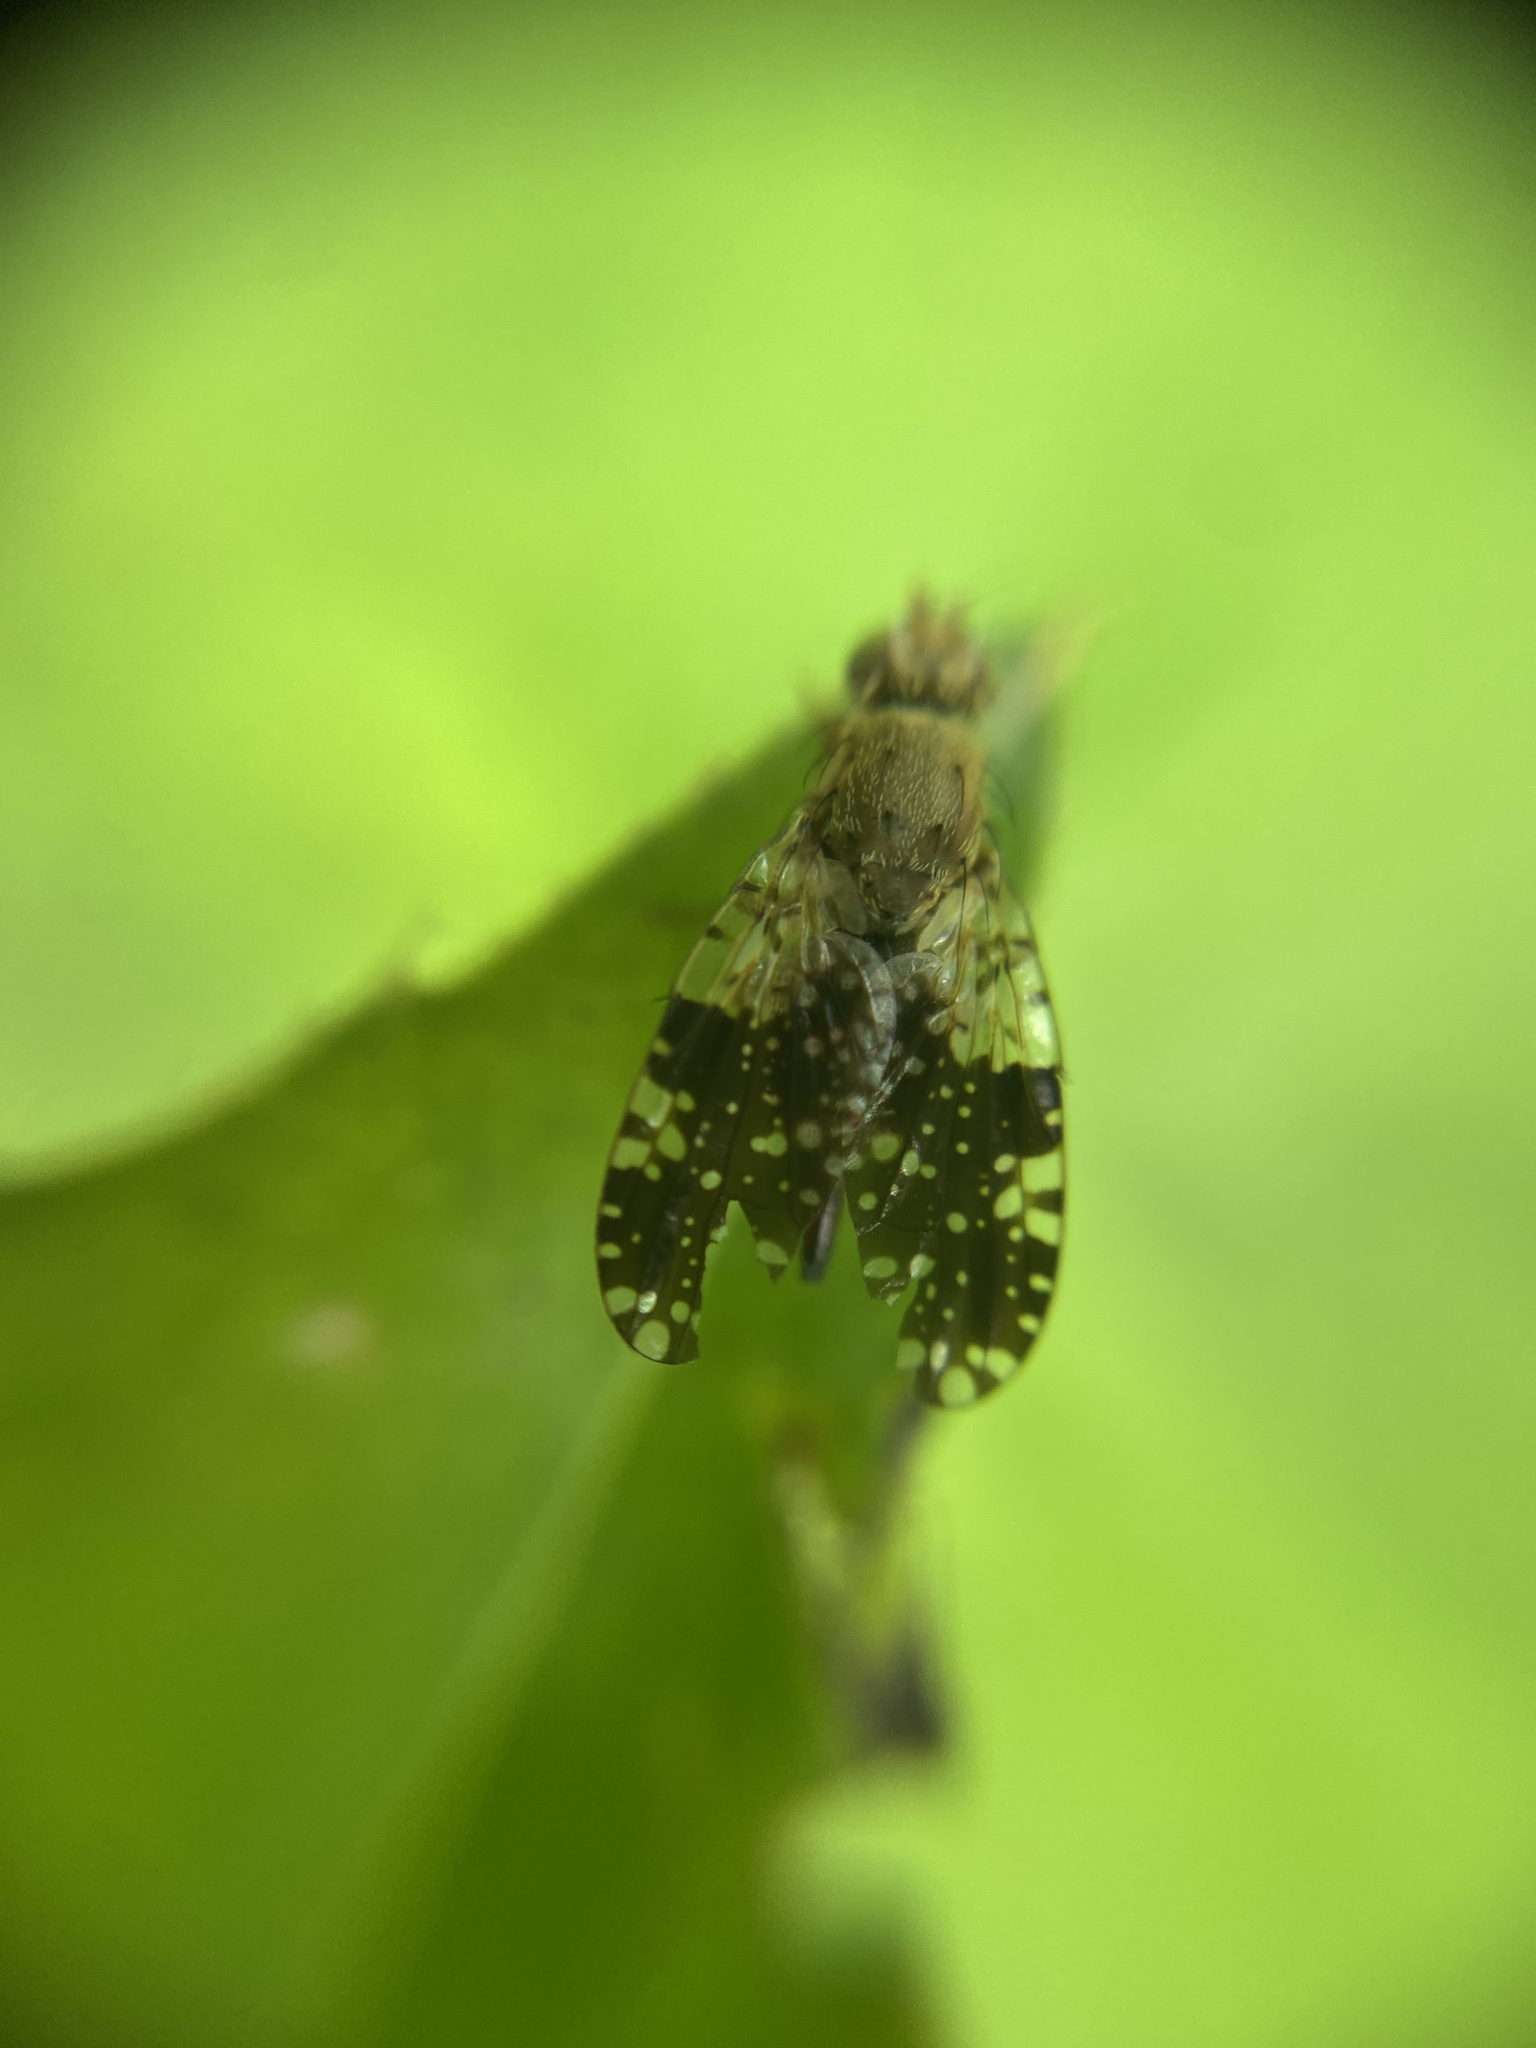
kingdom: Animalia
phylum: Arthropoda
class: Insecta
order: Diptera
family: Tephritidae
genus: Tephritis
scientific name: Tephritis conura
